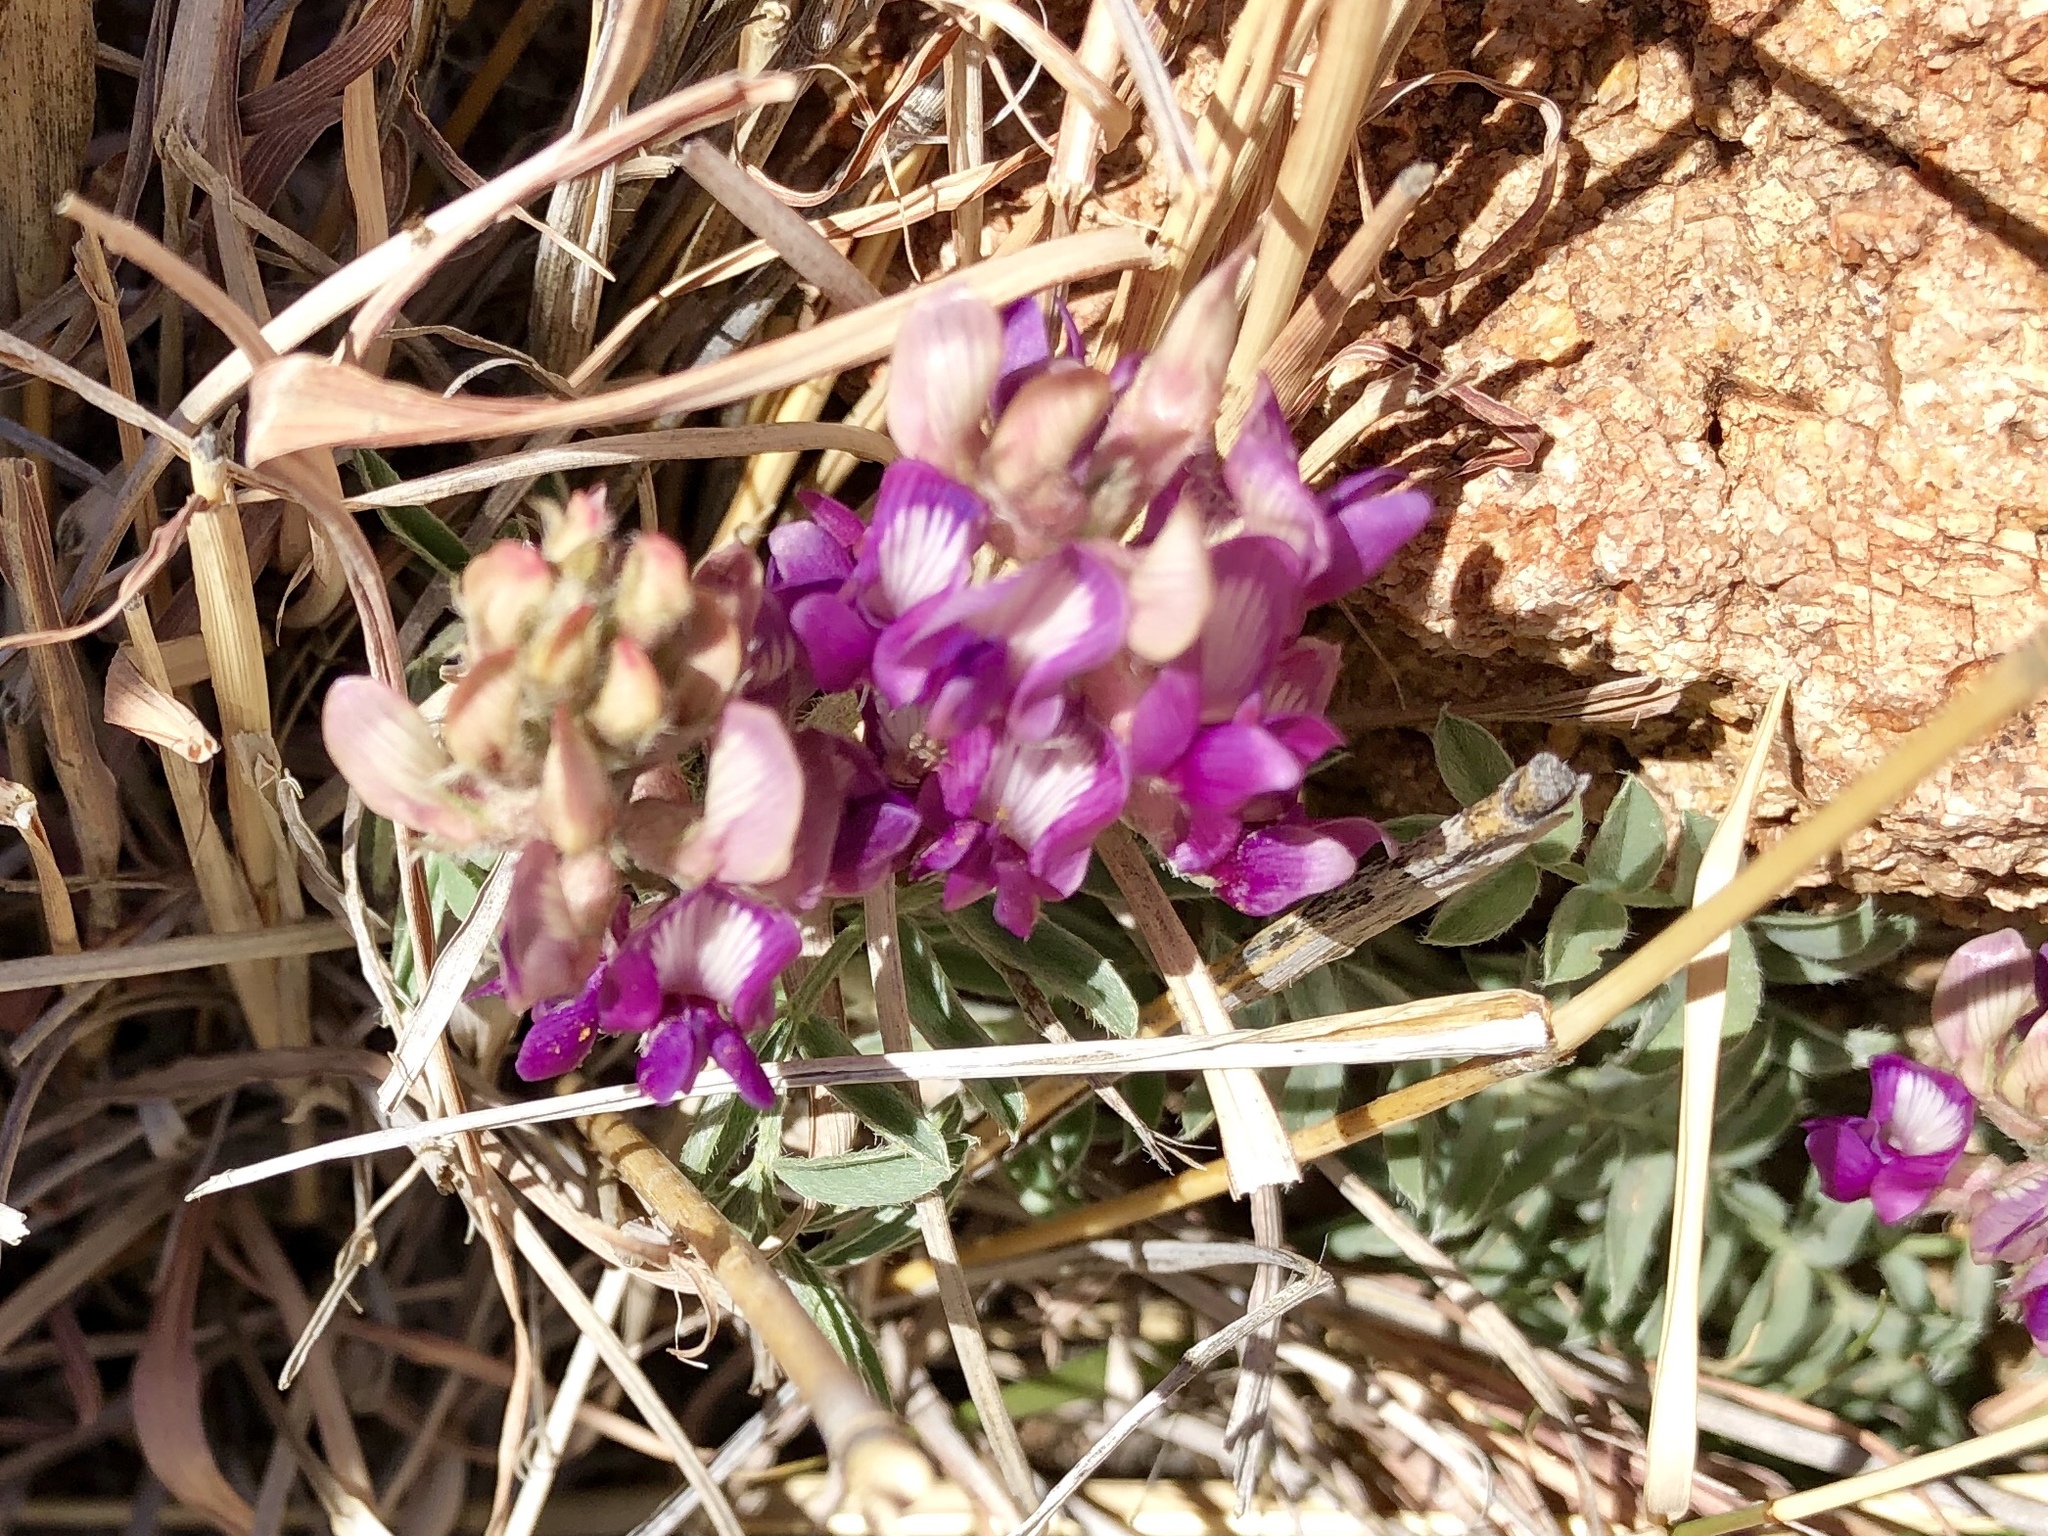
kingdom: Plantae
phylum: Tracheophyta
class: Magnoliopsida
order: Fabales
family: Fabaceae
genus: Astragalus
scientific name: Astragalus humistratus
